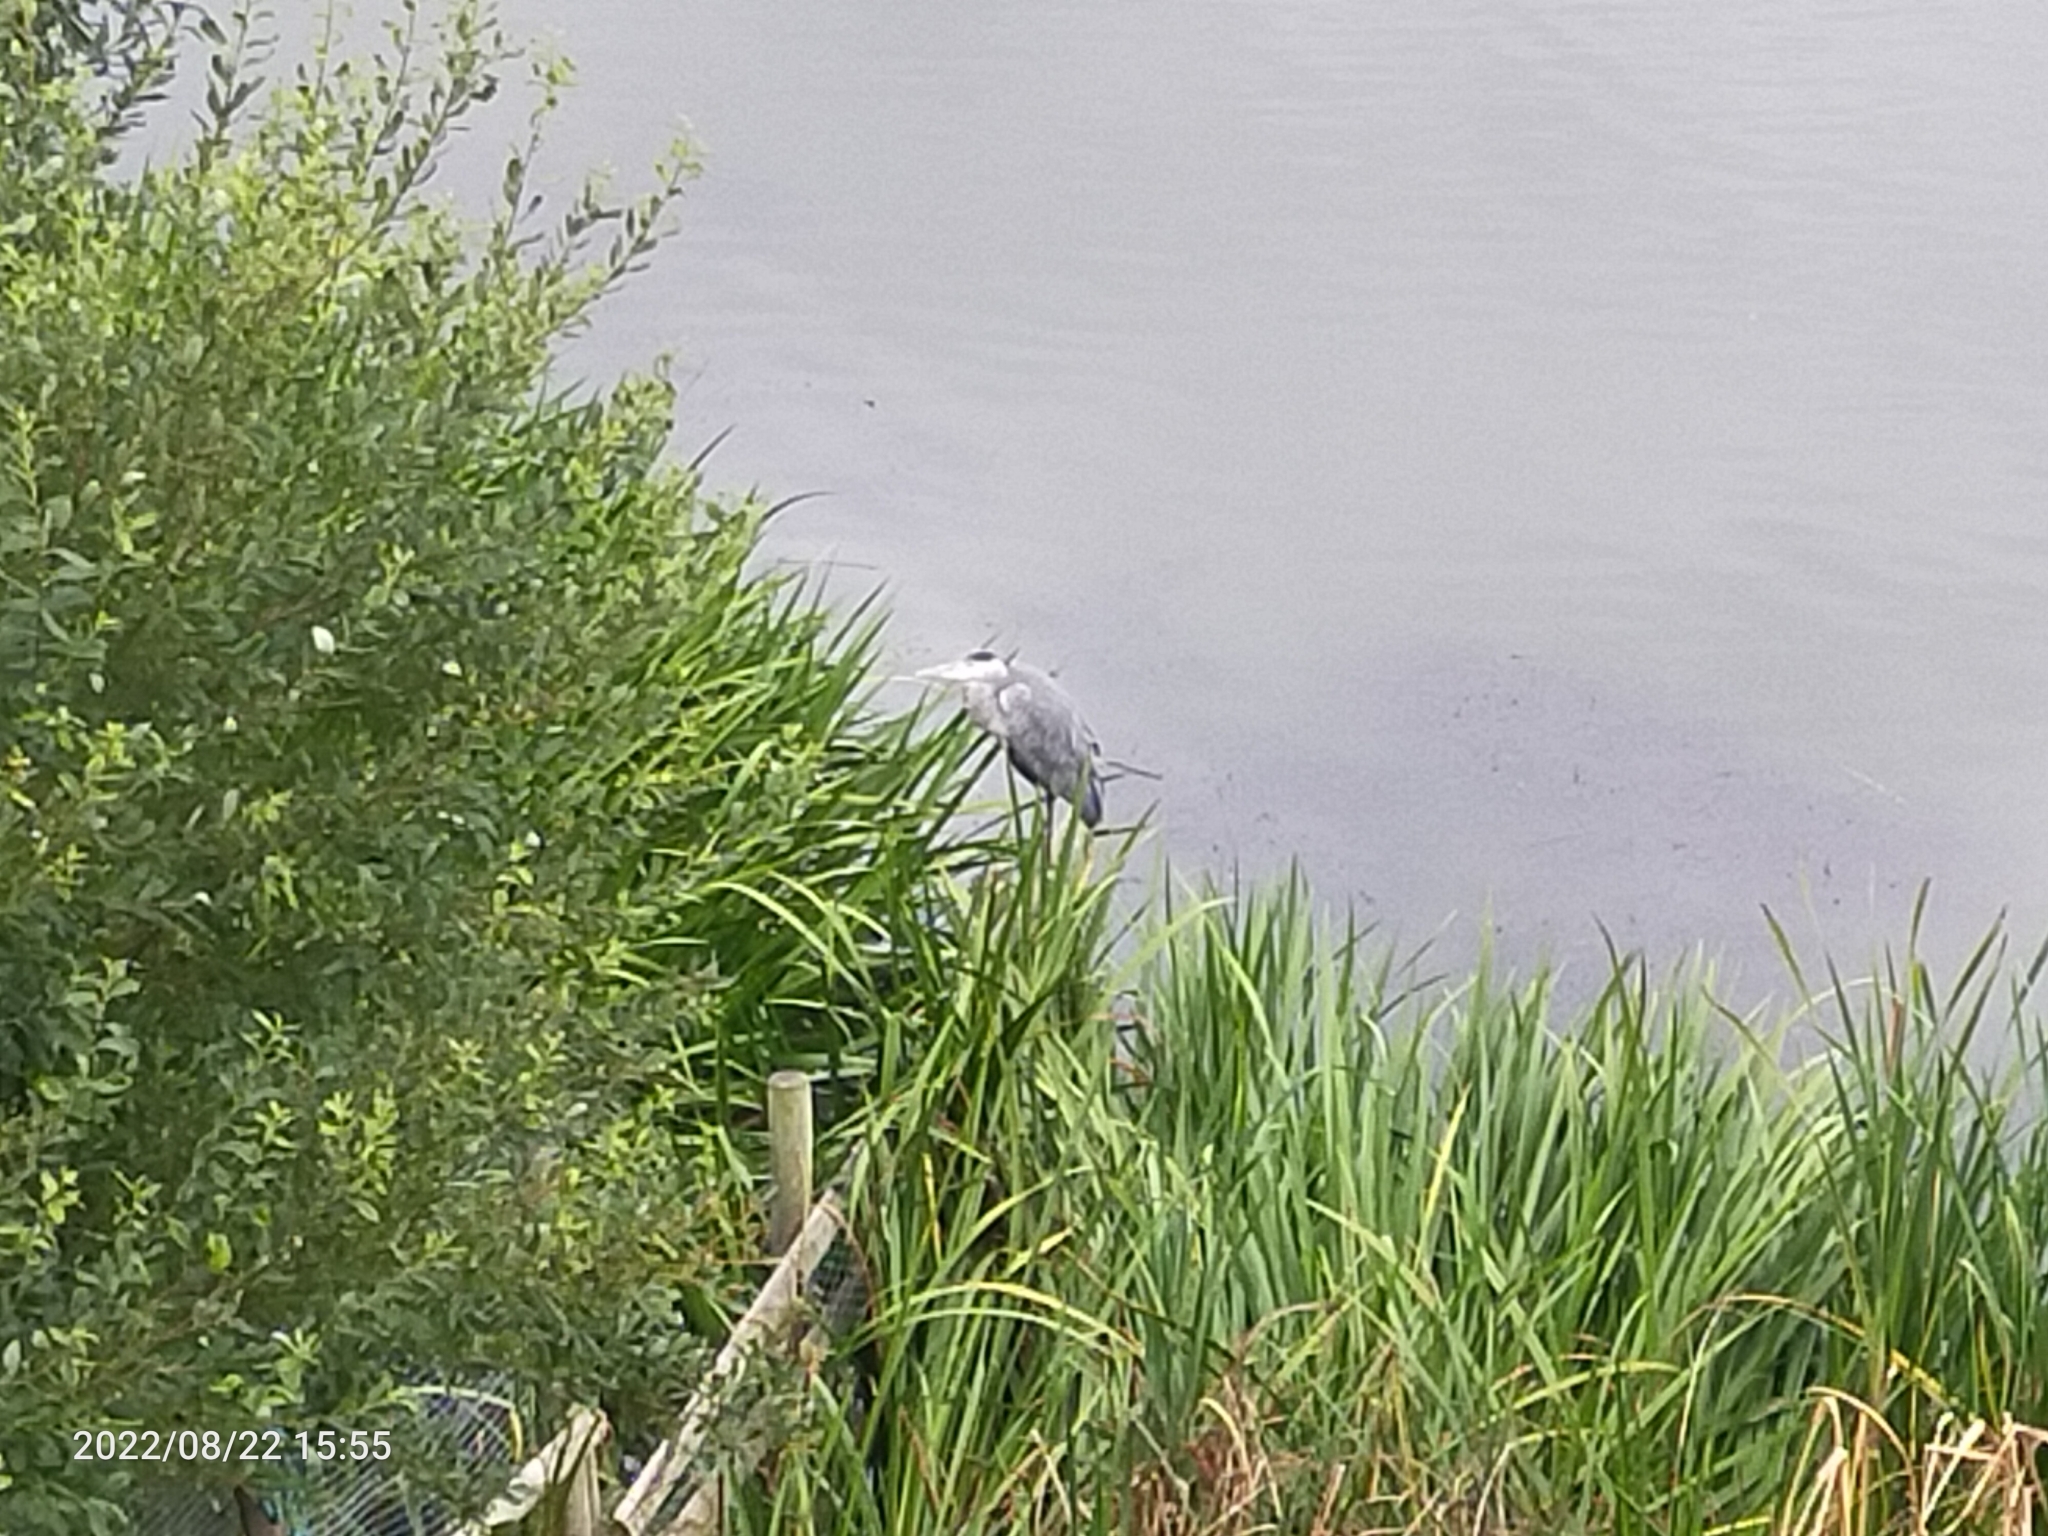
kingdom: Animalia
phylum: Chordata
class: Aves
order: Pelecaniformes
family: Ardeidae
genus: Ardea
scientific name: Ardea cinerea
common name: Grey heron
